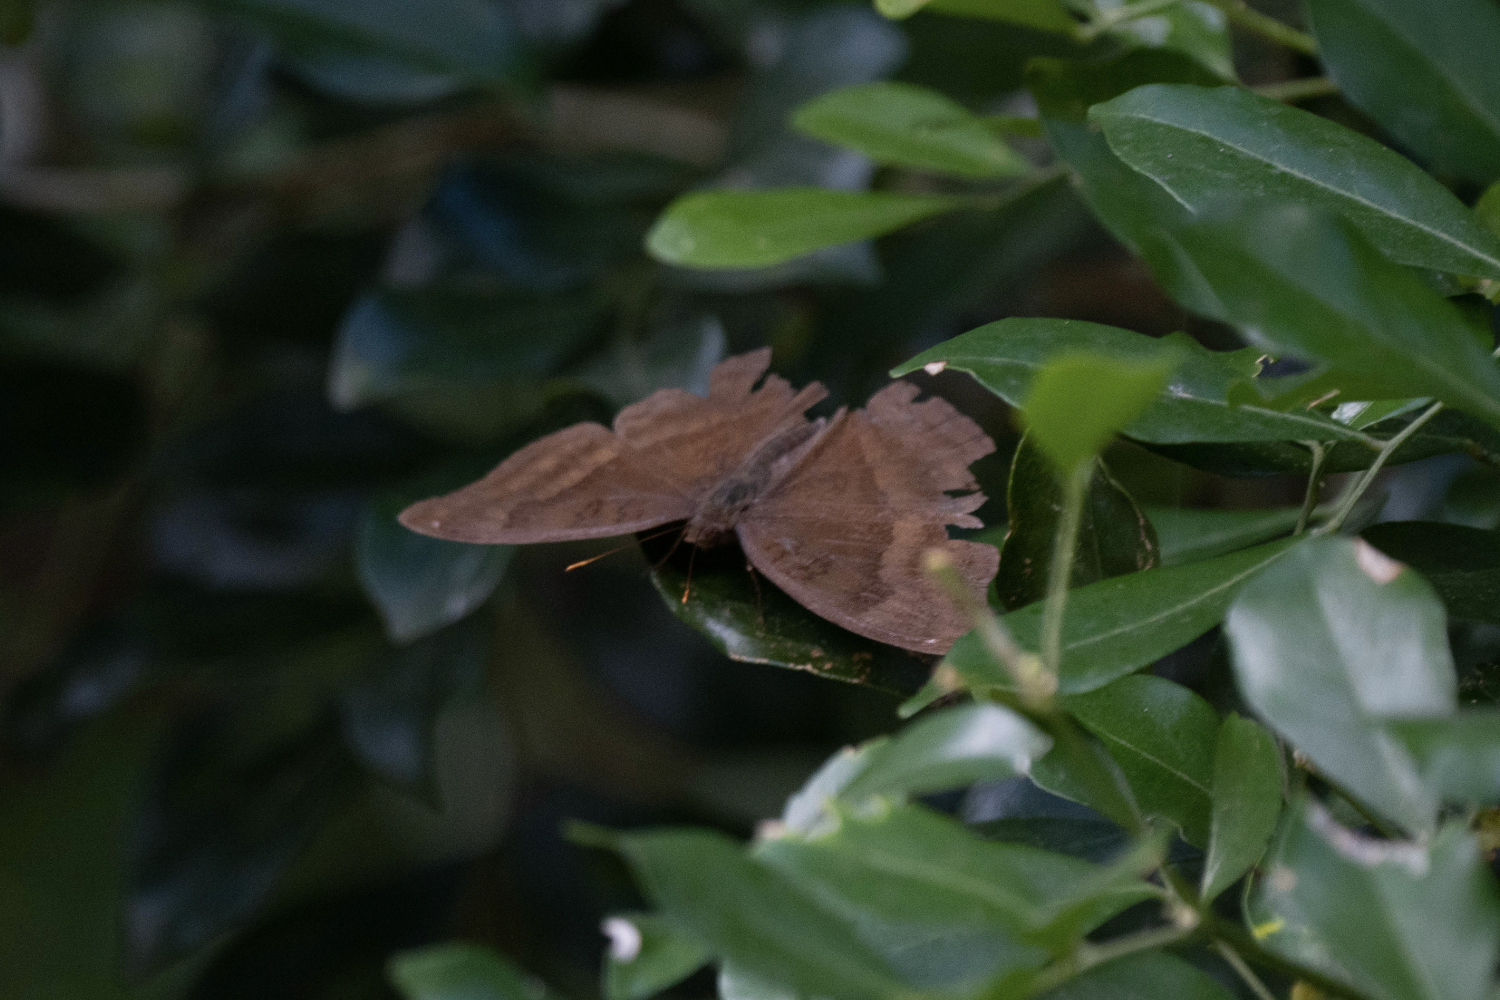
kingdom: Animalia
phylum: Arthropoda
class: Insecta
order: Lepidoptera
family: Nymphalidae
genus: Junonia
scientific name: Junonia iphita
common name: Chocolate pansy
